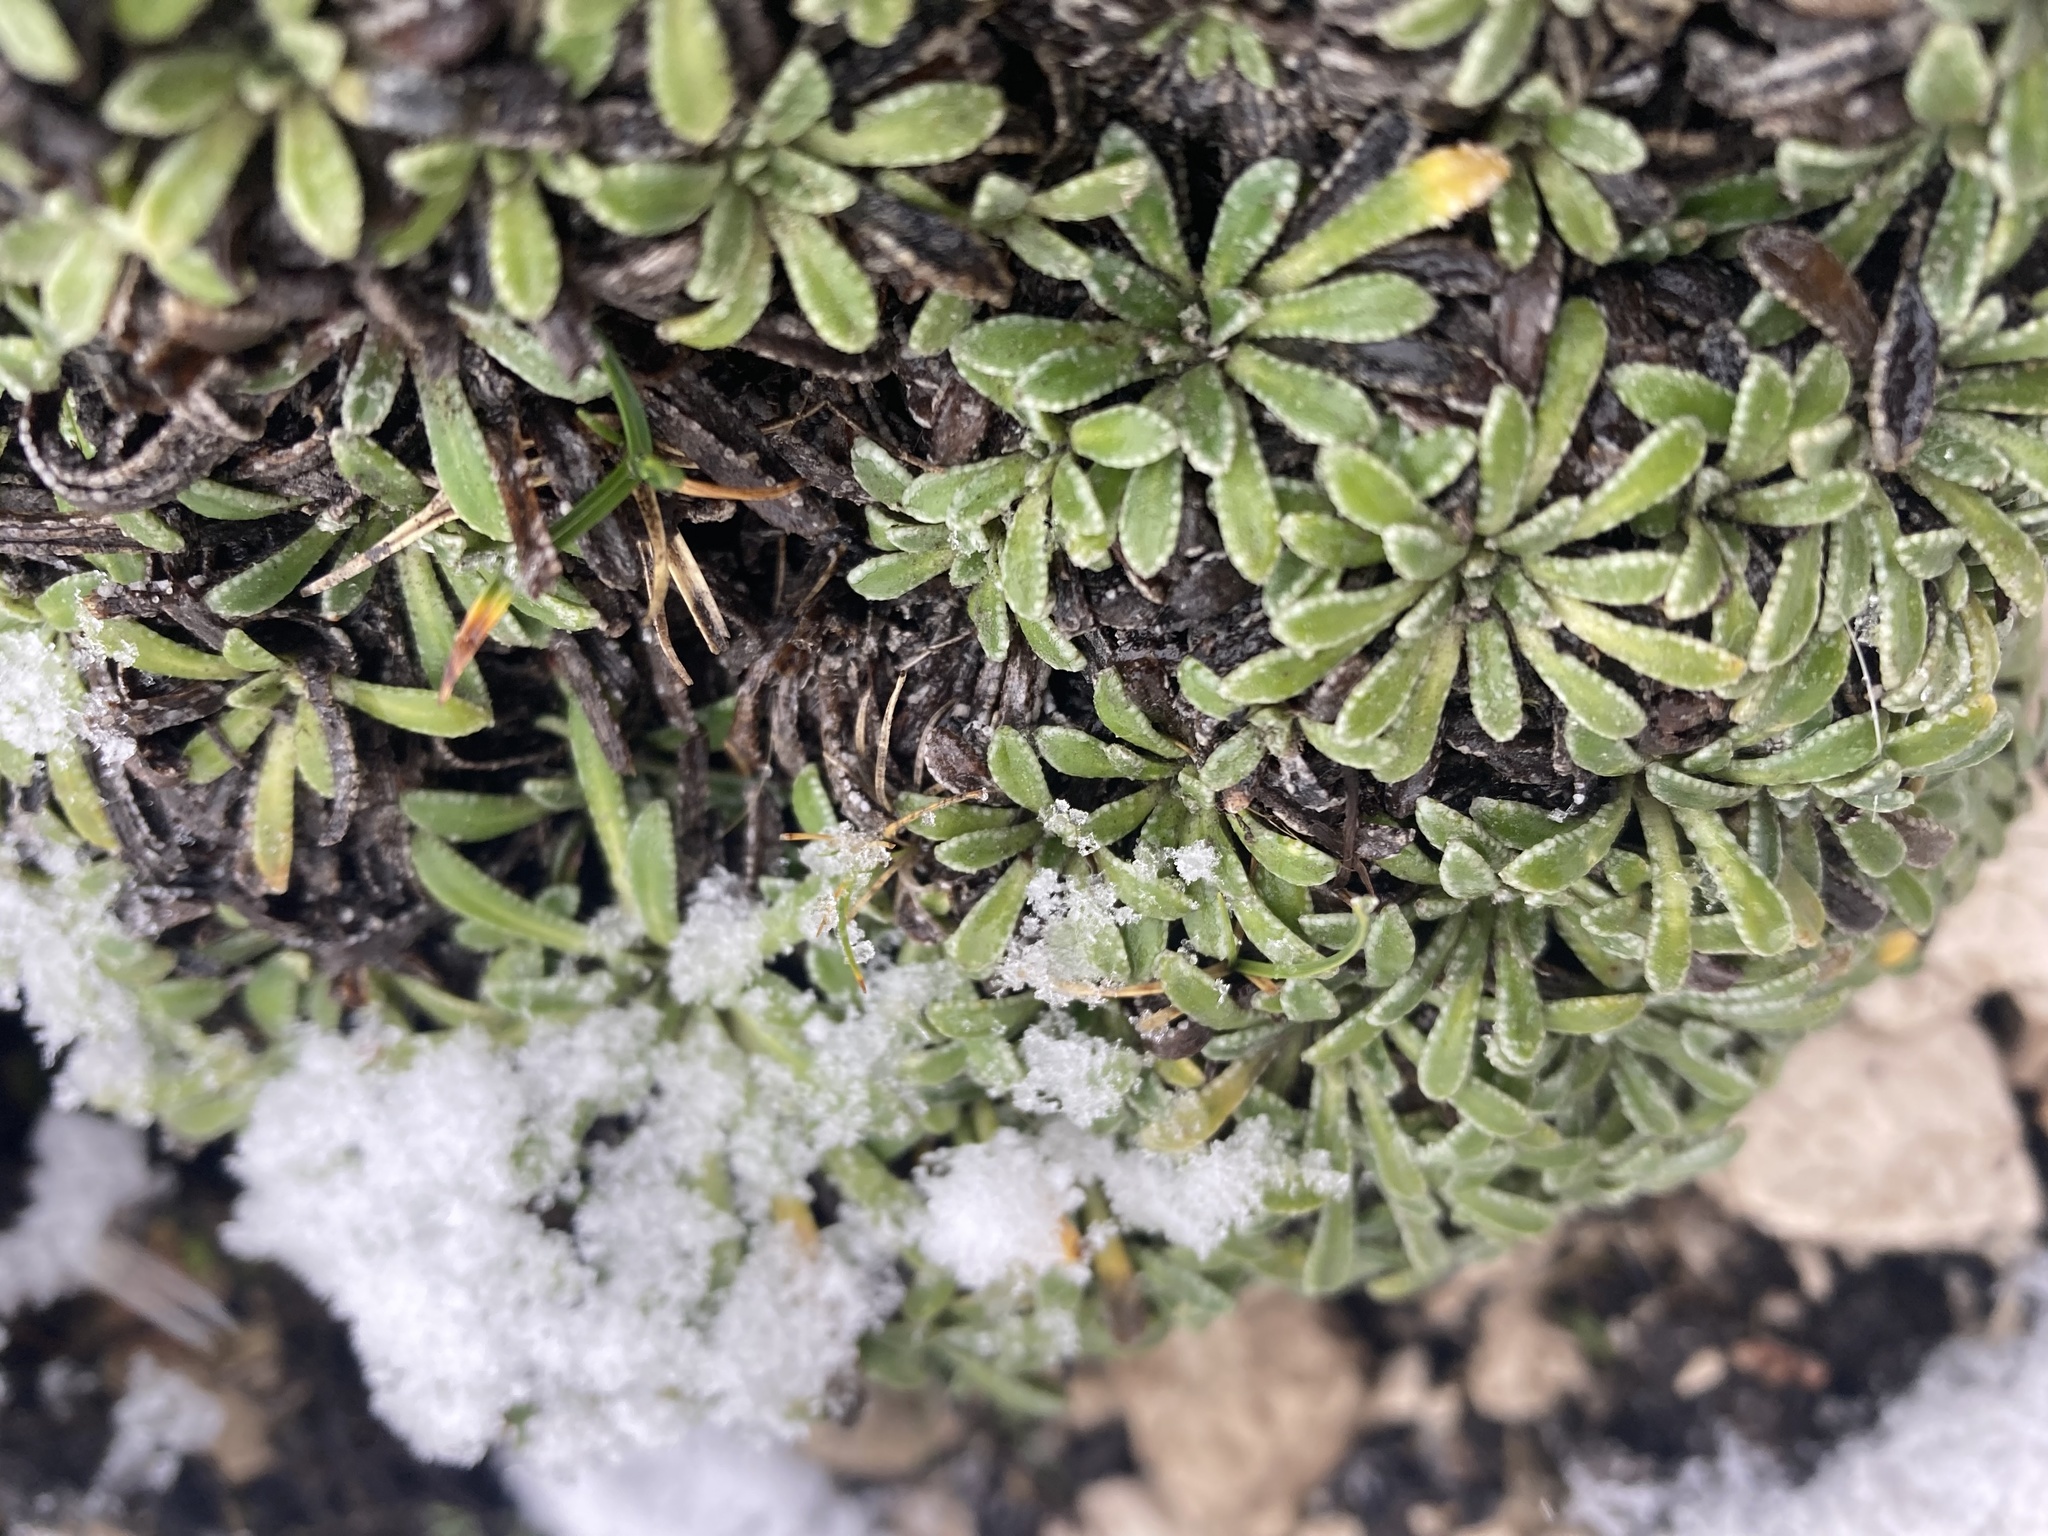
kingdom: Plantae
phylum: Tracheophyta
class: Magnoliopsida
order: Saxifragales
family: Saxifragaceae
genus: Saxifraga
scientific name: Saxifraga crustata
